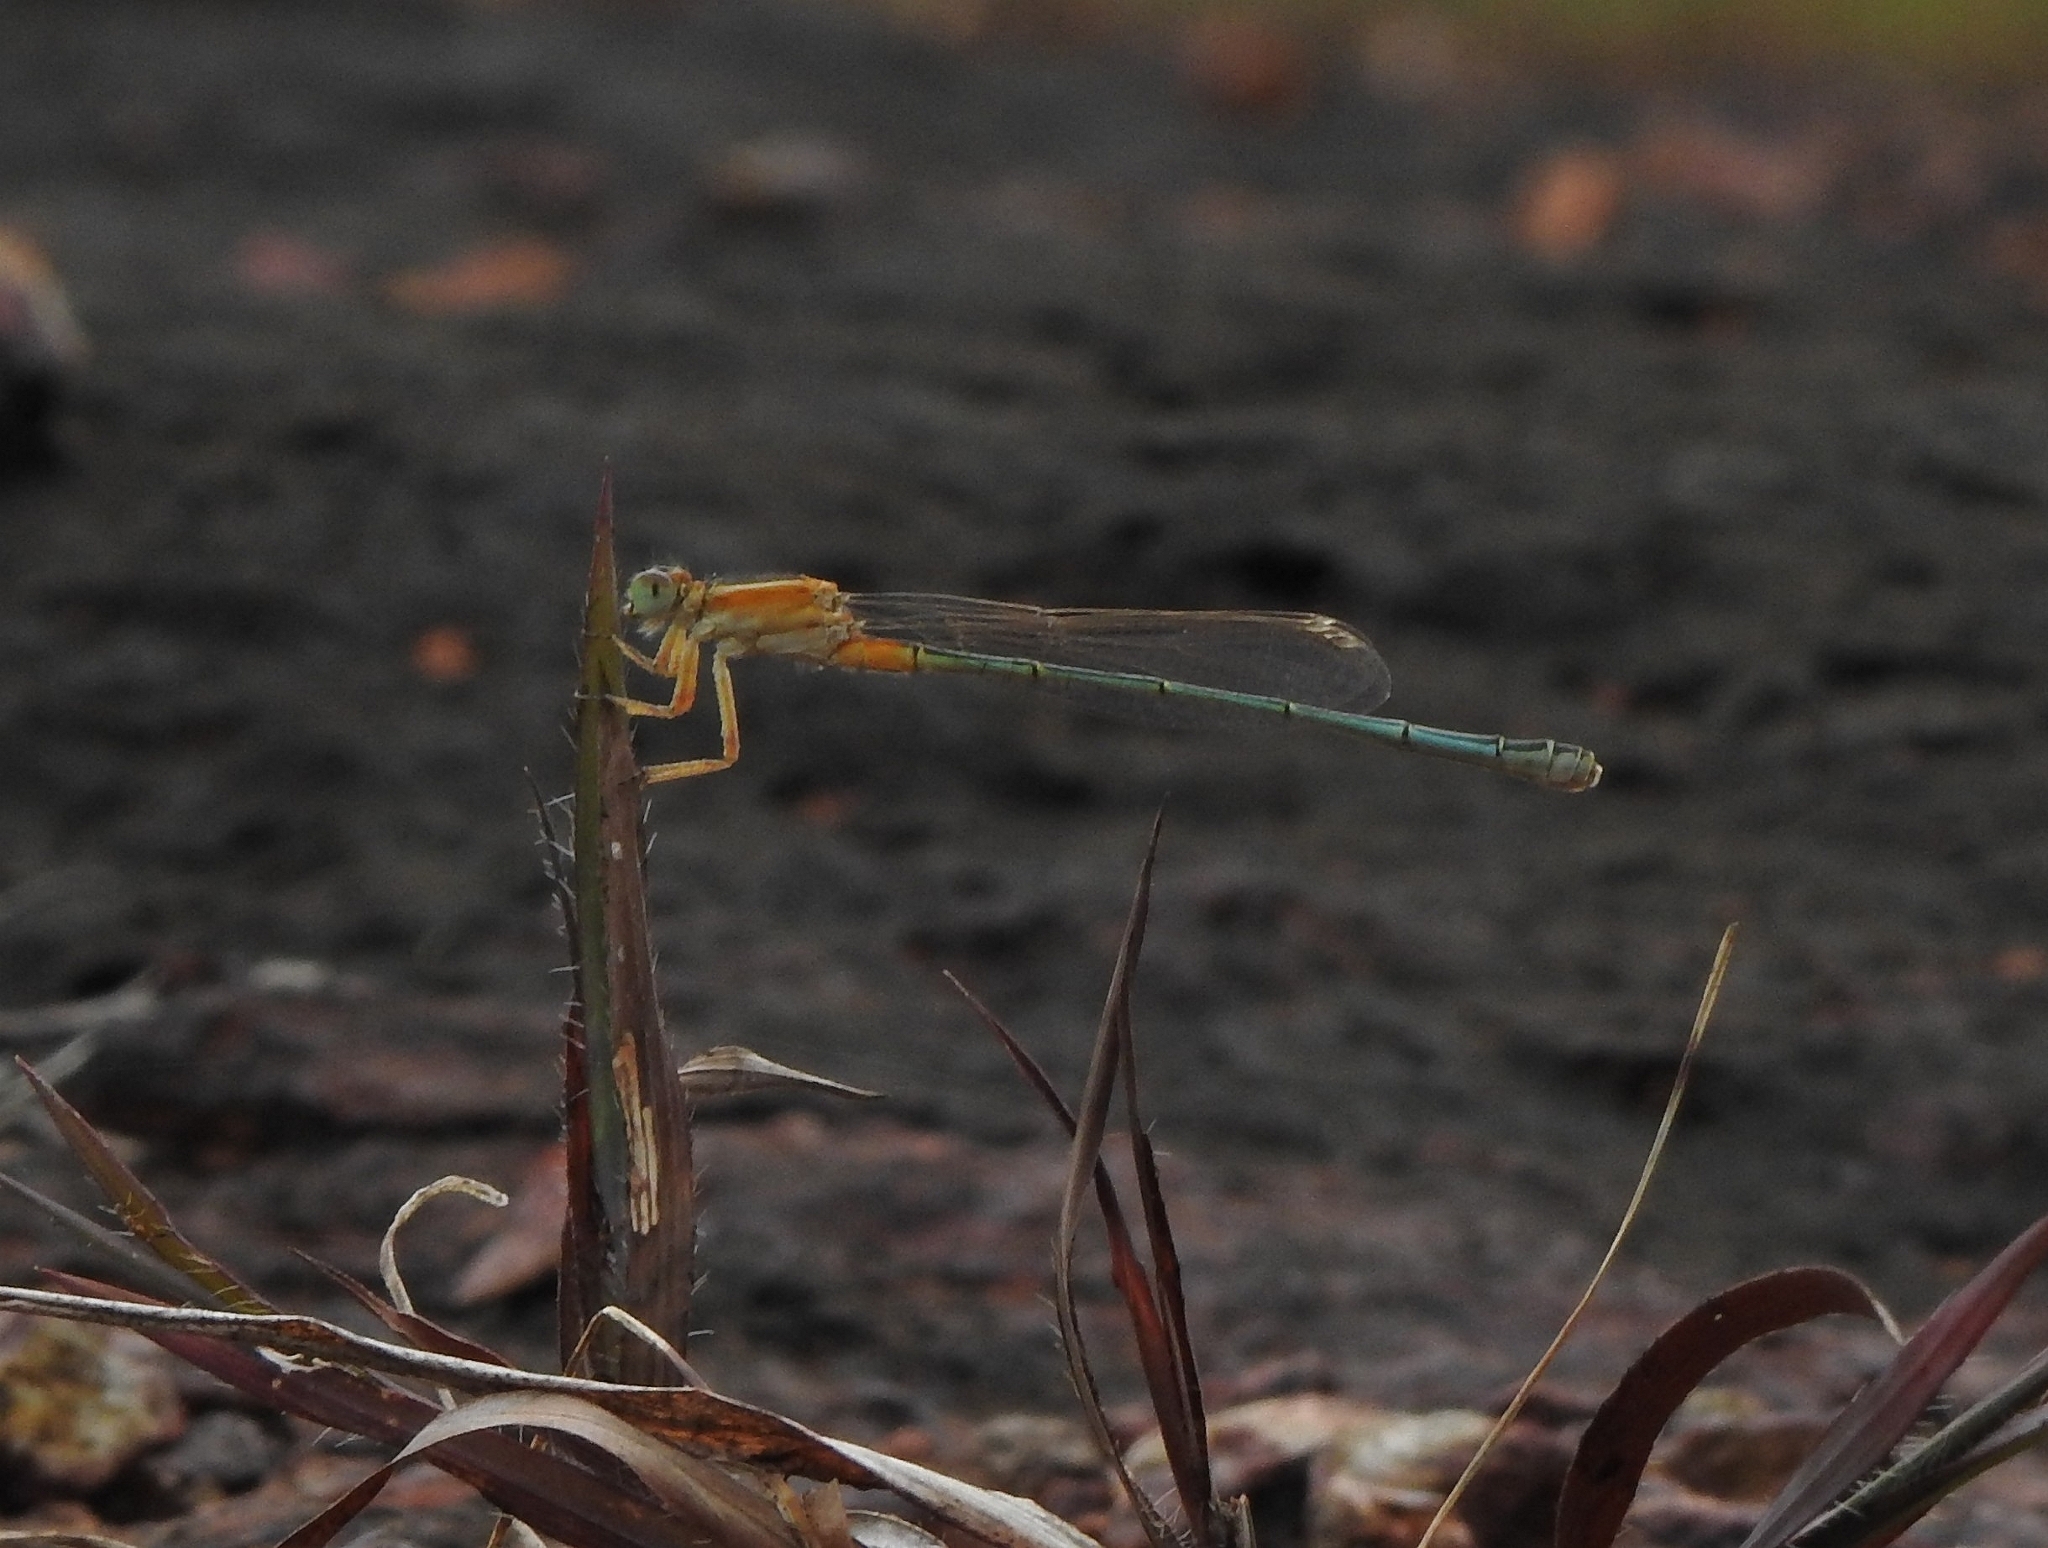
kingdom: Animalia
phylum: Arthropoda
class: Insecta
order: Odonata
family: Coenagrionidae
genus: Ischnura
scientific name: Ischnura senegalensis
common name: Tropical bluetail
